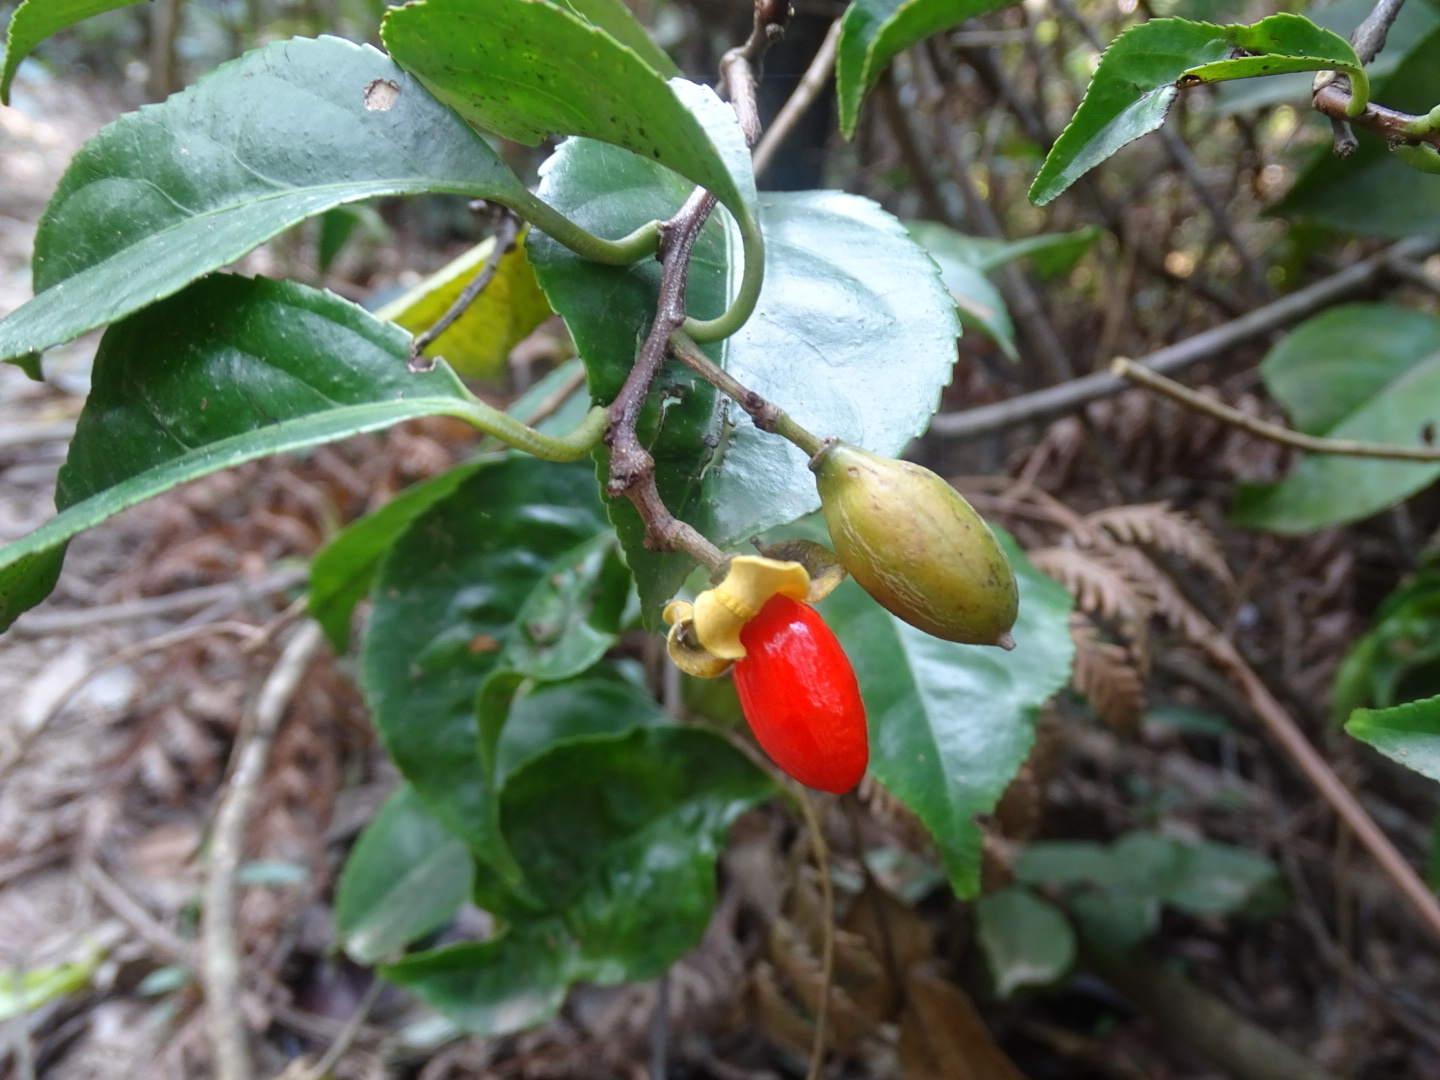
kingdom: Plantae
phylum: Tracheophyta
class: Magnoliopsida
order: Celastrales
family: Celastraceae
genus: Celastrus
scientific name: Celastrus monospermus
